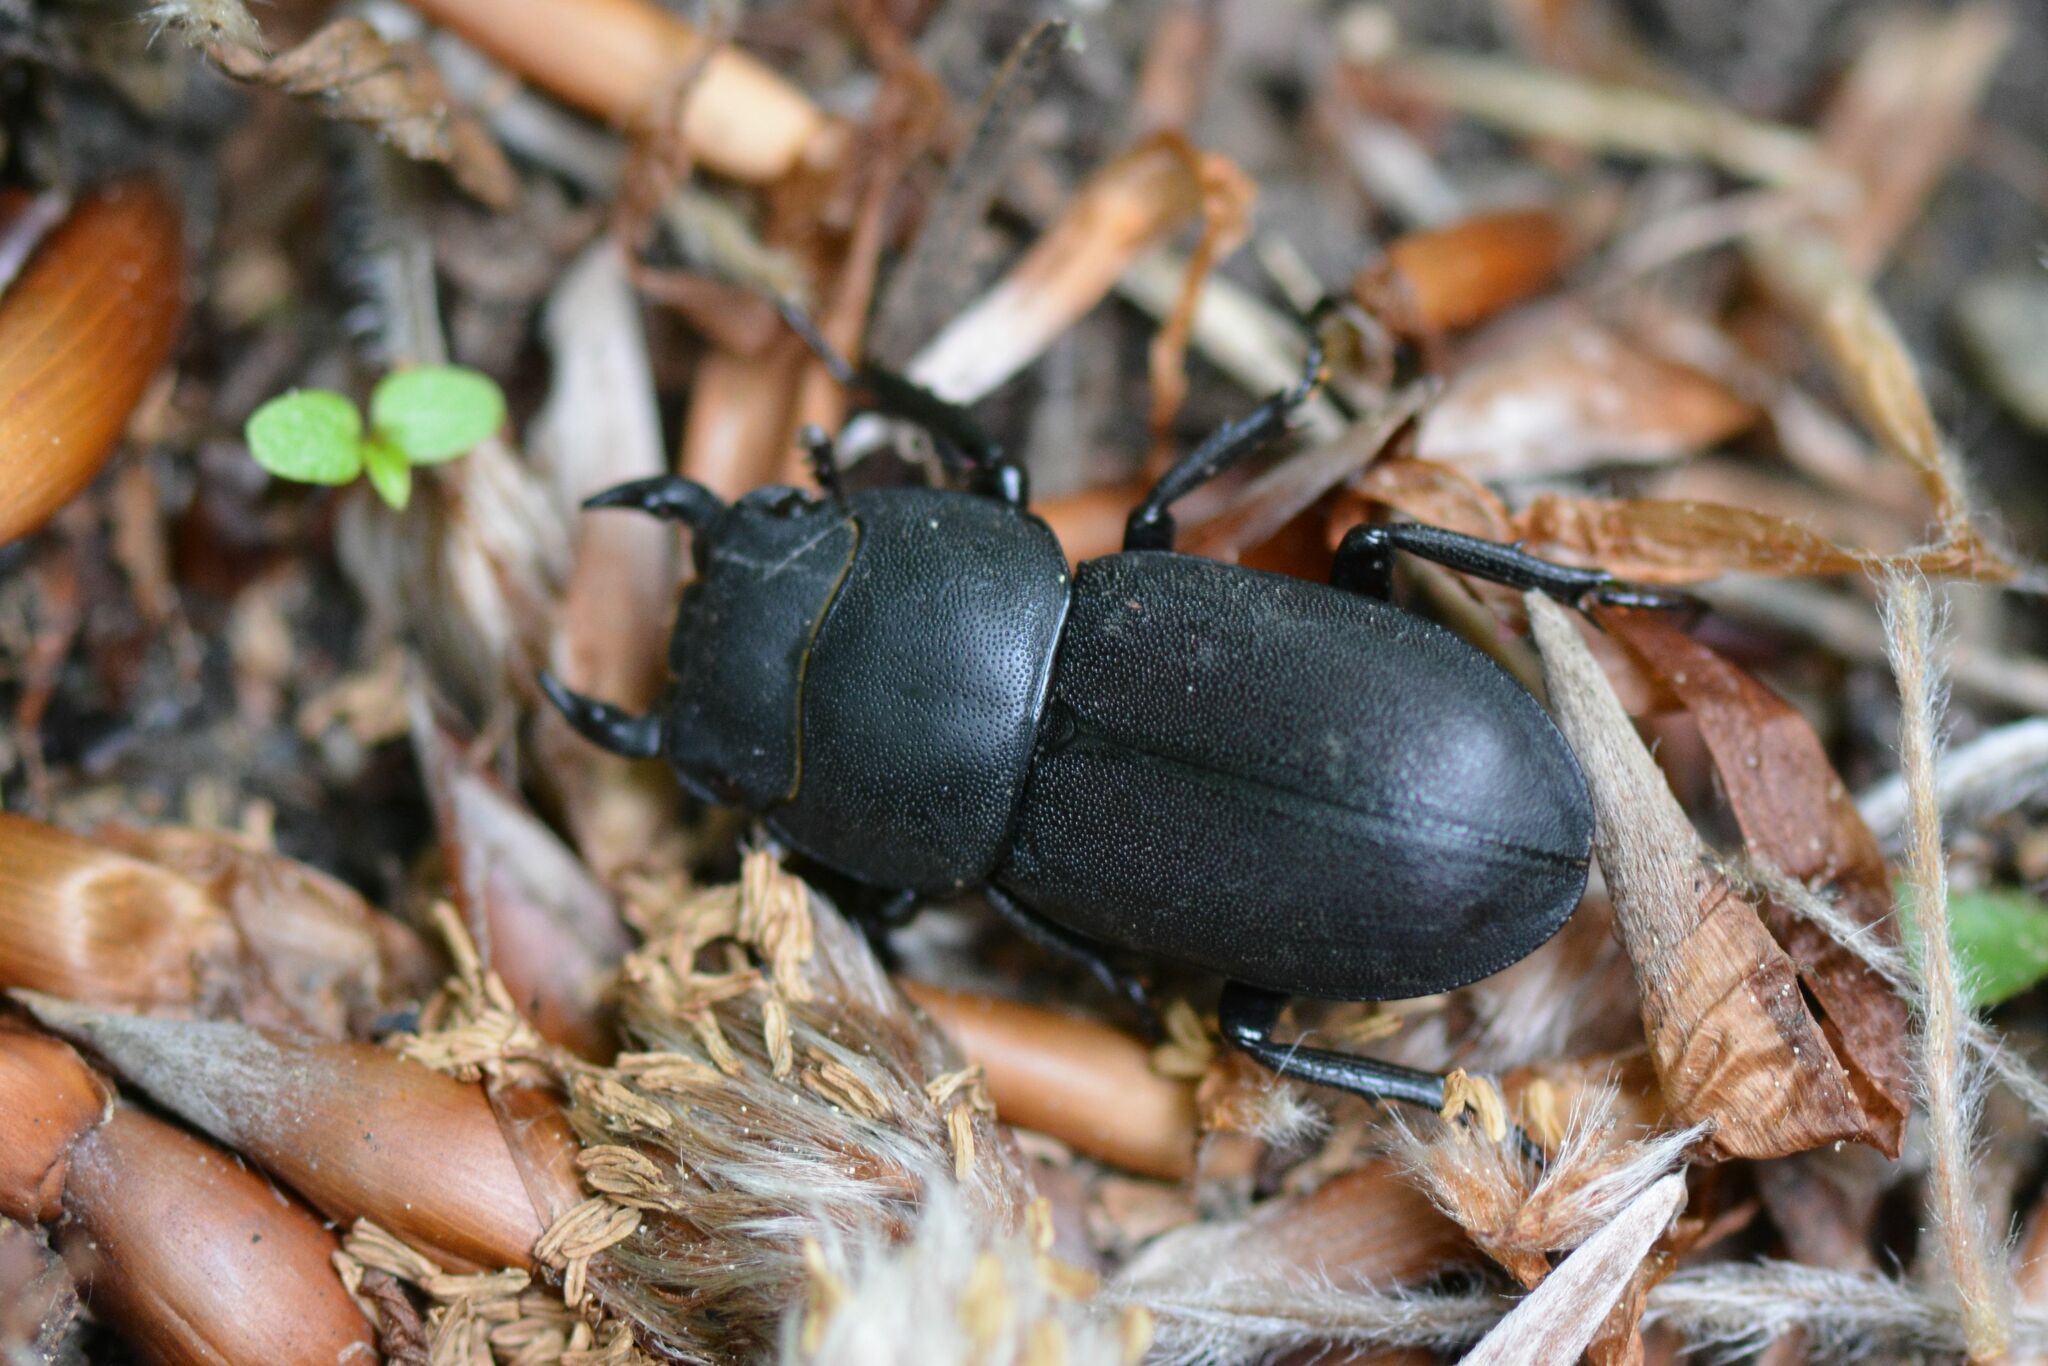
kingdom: Animalia
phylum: Arthropoda
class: Insecta
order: Coleoptera
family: Lucanidae
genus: Dorcus
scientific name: Dorcus parallelipipedus
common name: Lesser stag beetle
